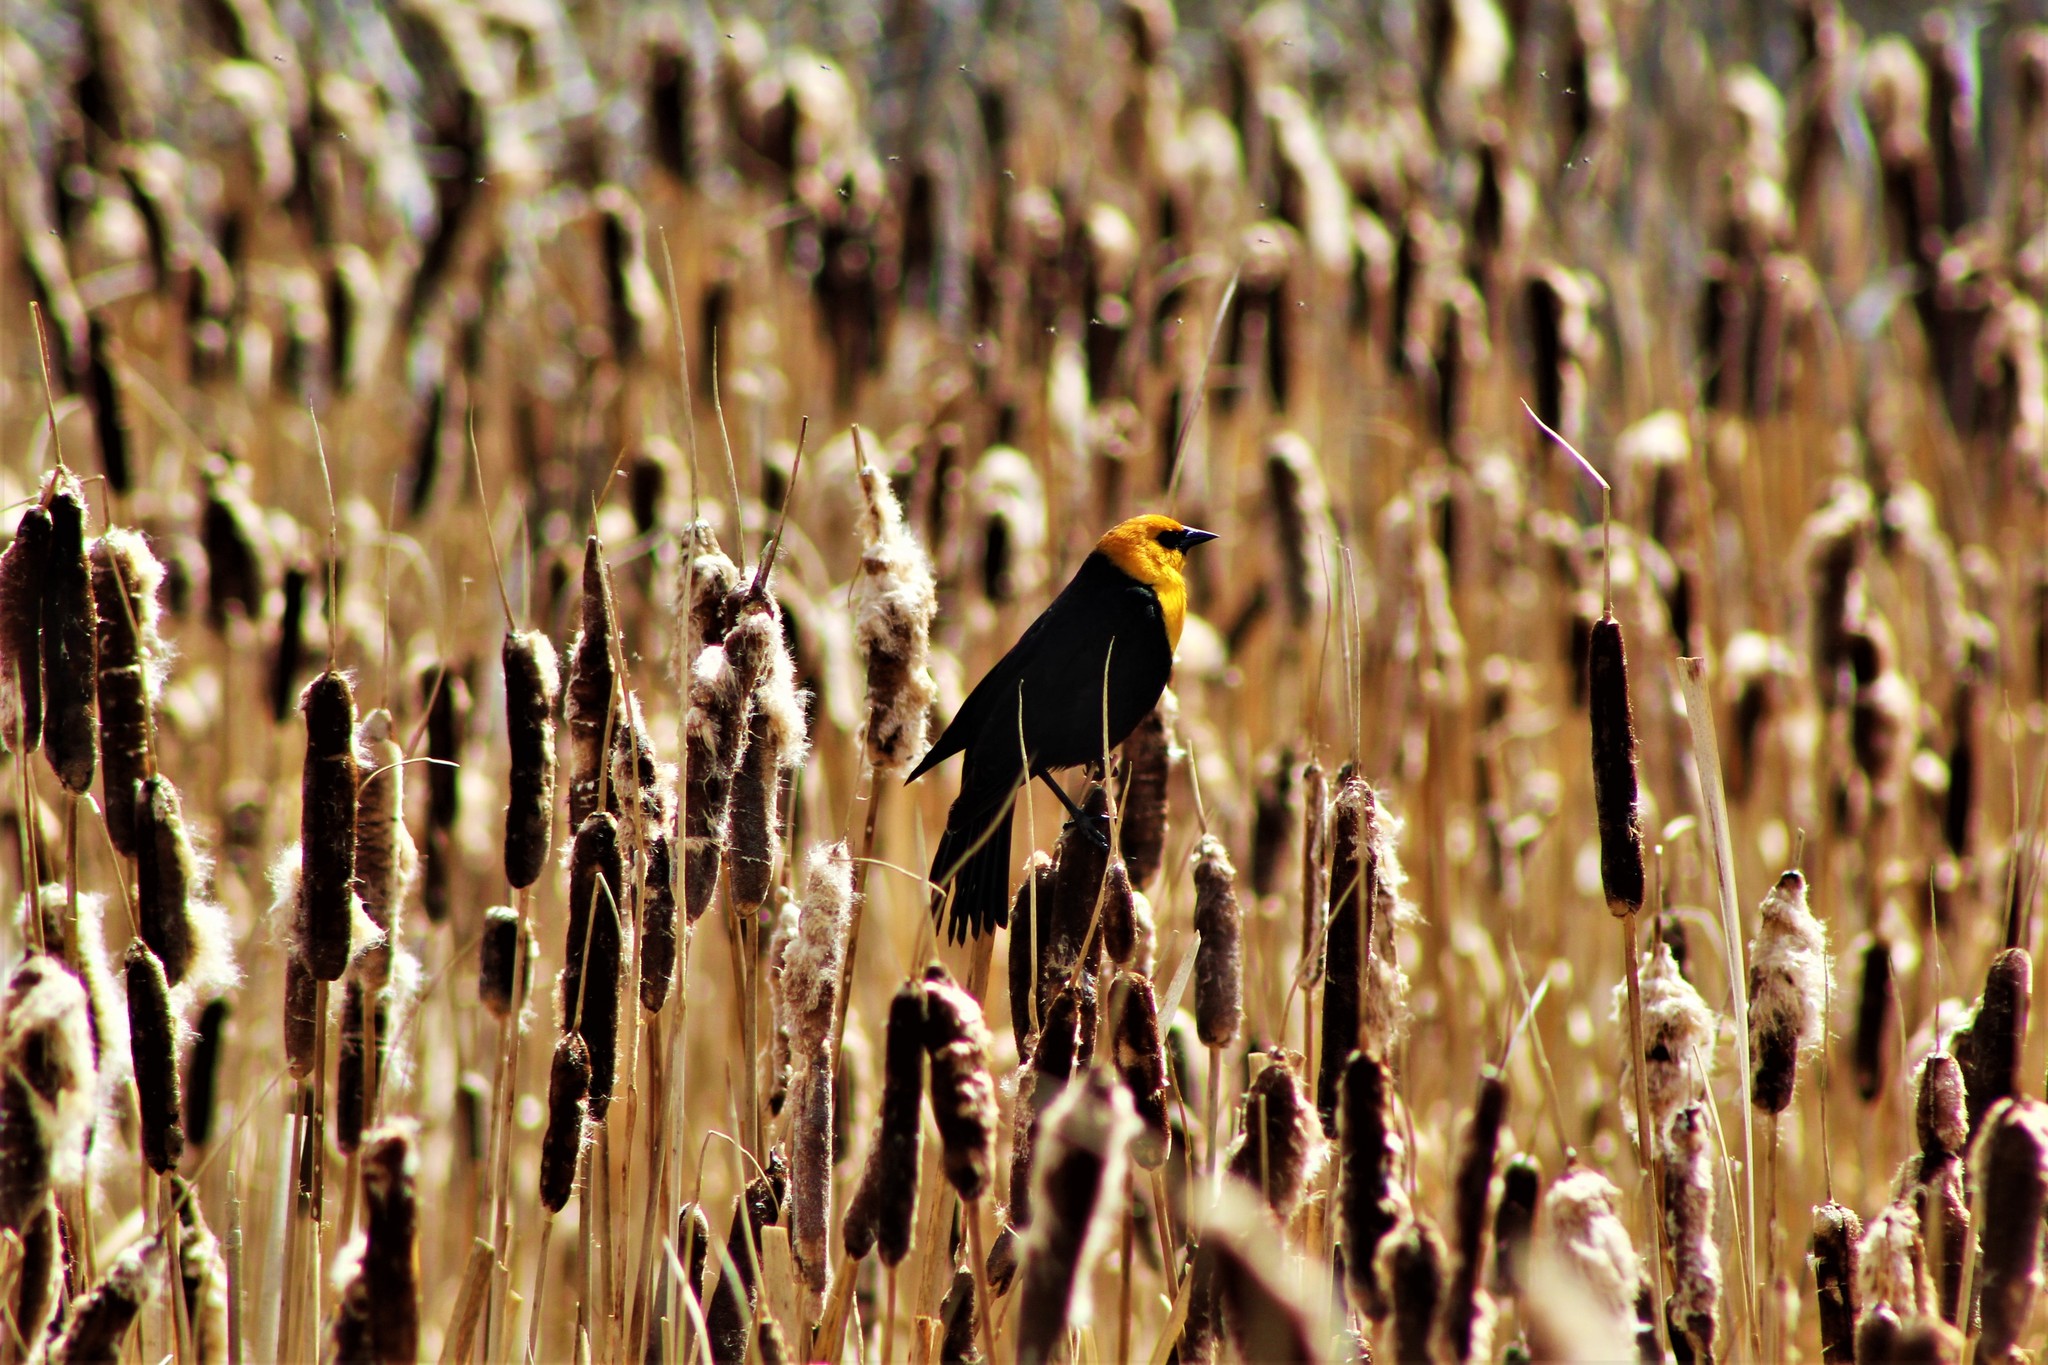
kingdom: Animalia
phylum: Chordata
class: Aves
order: Passeriformes
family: Icteridae
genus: Xanthocephalus
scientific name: Xanthocephalus xanthocephalus
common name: Yellow-headed blackbird
